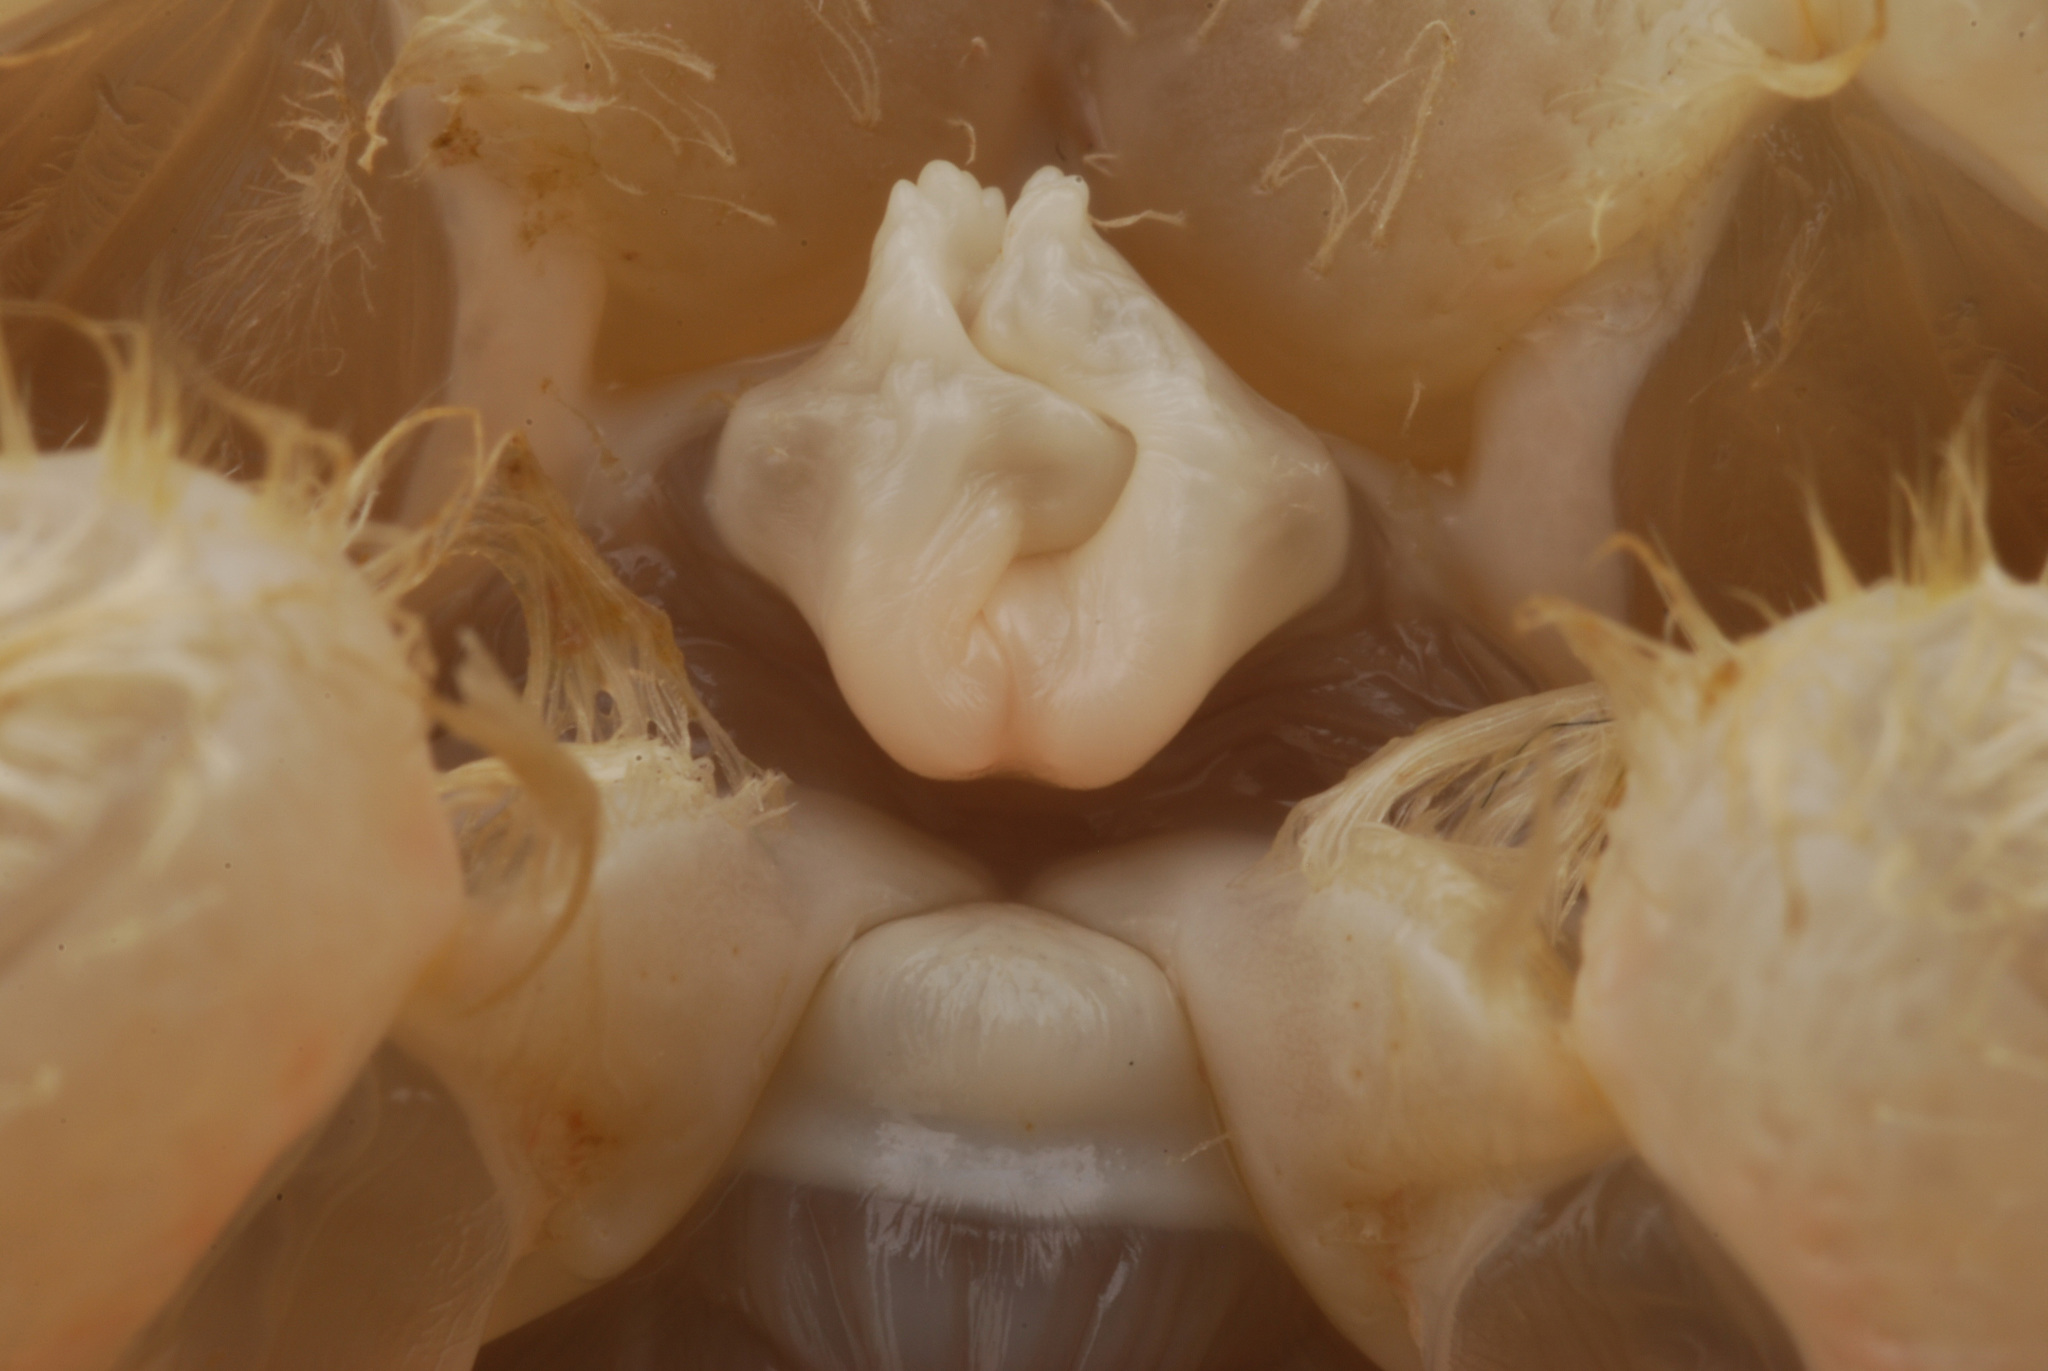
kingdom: Animalia
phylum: Arthropoda
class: Malacostraca
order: Decapoda
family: Cambaridae
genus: Procambarus
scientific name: Procambarus curdi
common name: Red river burrowing crayfish
